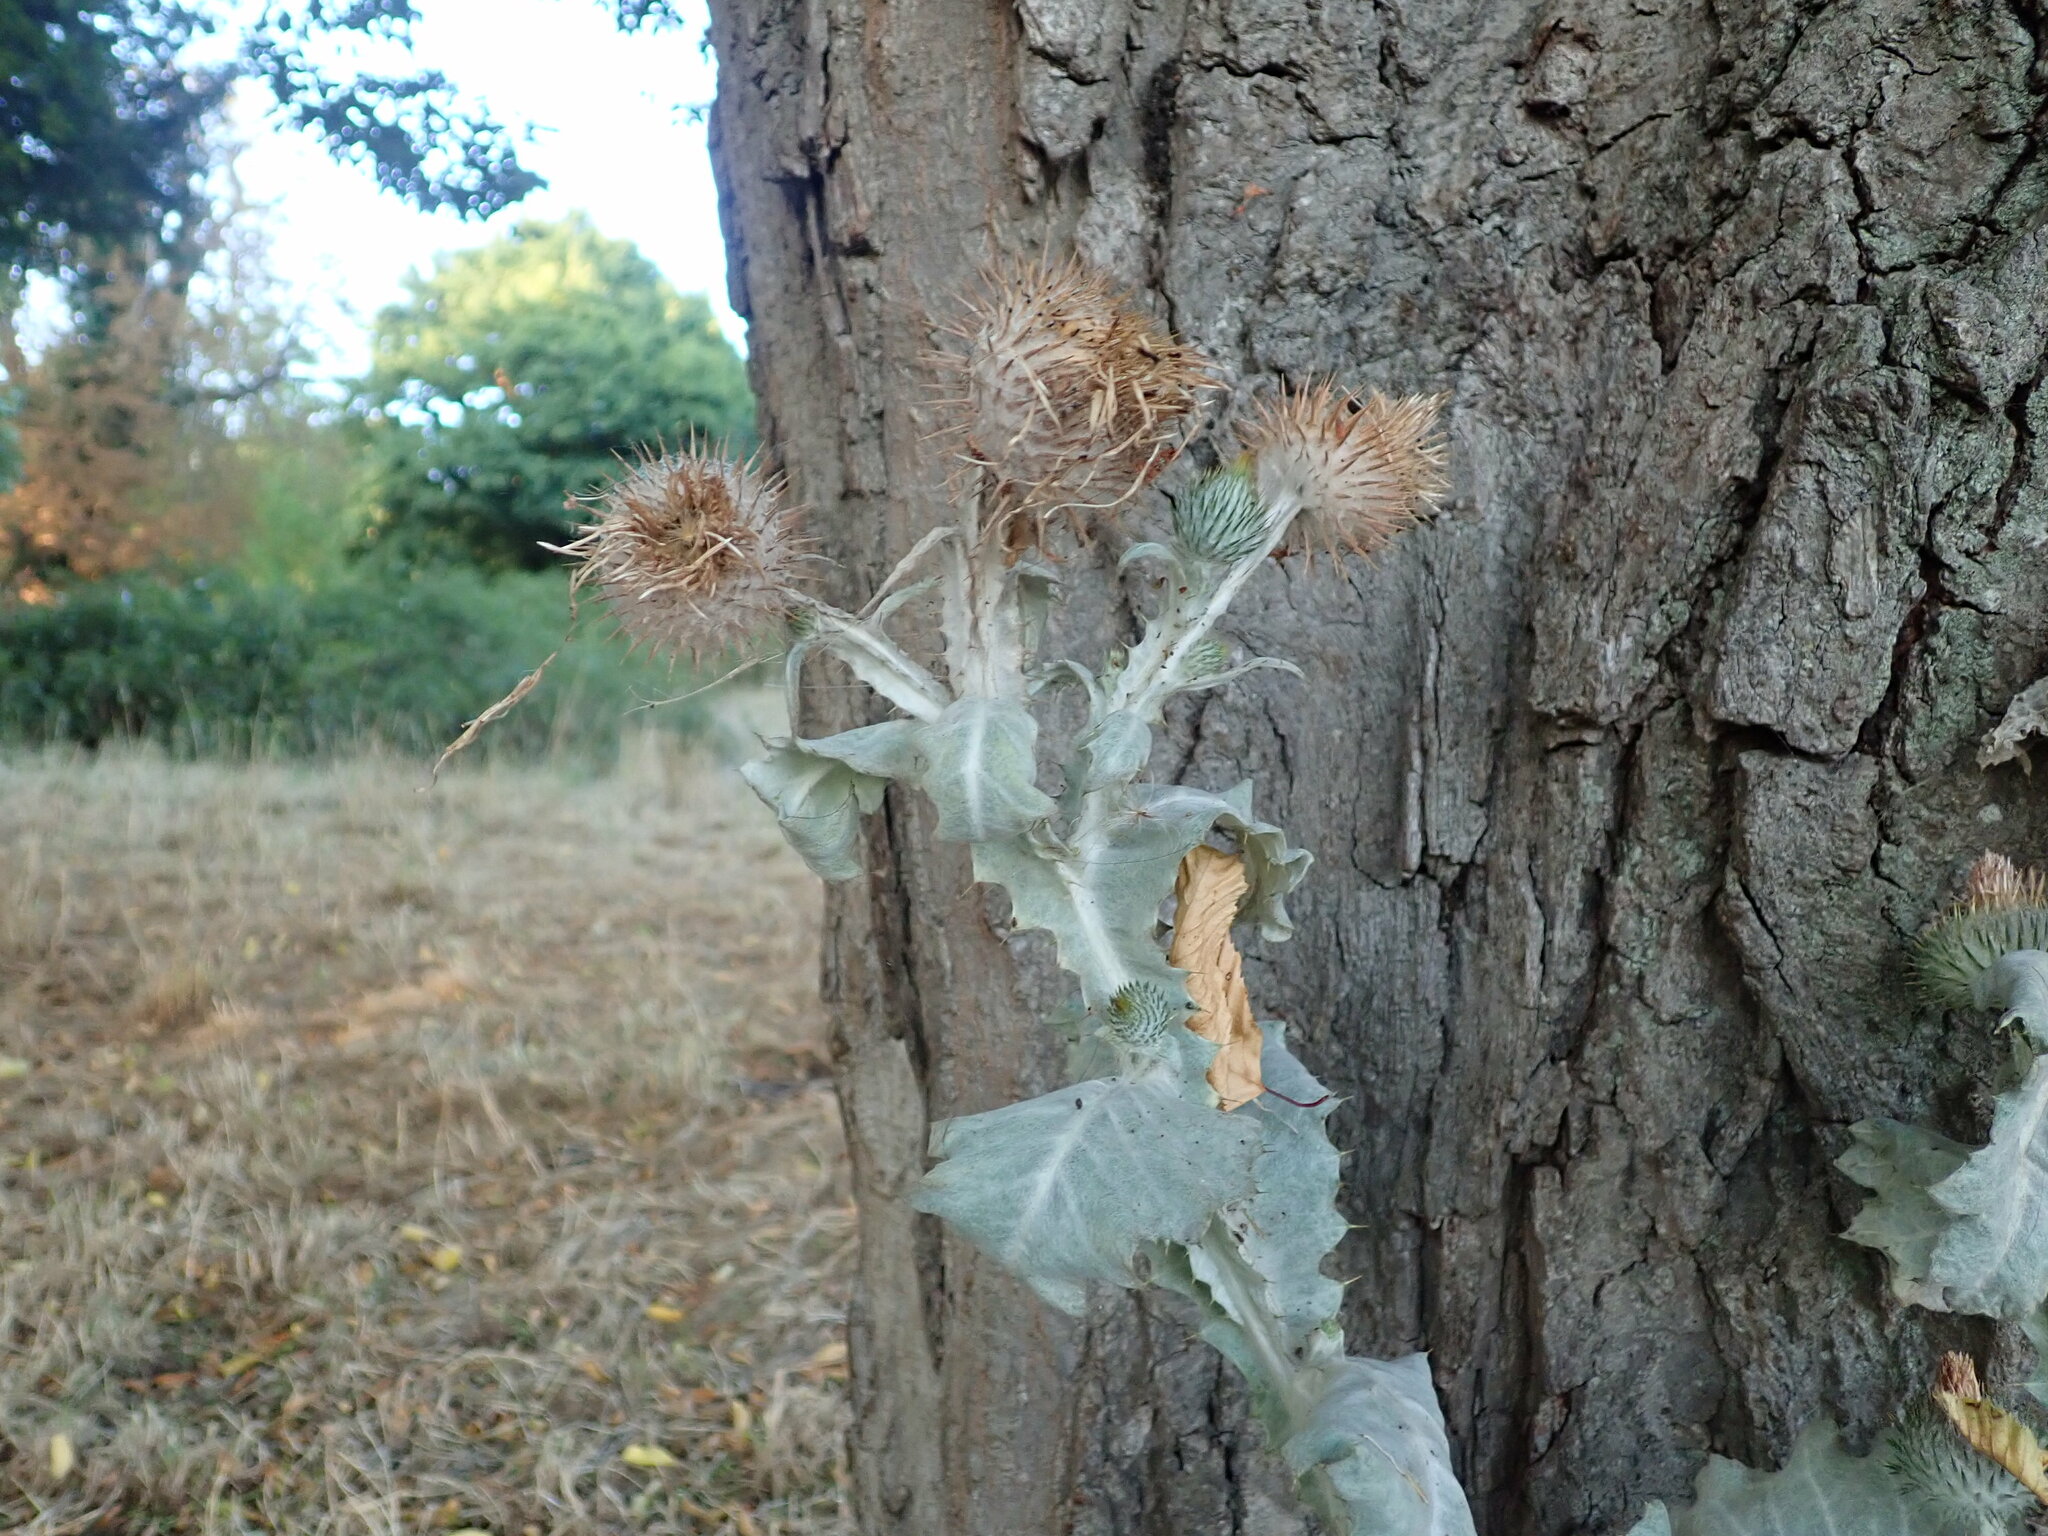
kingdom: Plantae
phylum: Tracheophyta
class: Magnoliopsida
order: Asterales
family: Asteraceae
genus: Onopordum
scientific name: Onopordum acanthium
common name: Scotch thistle
